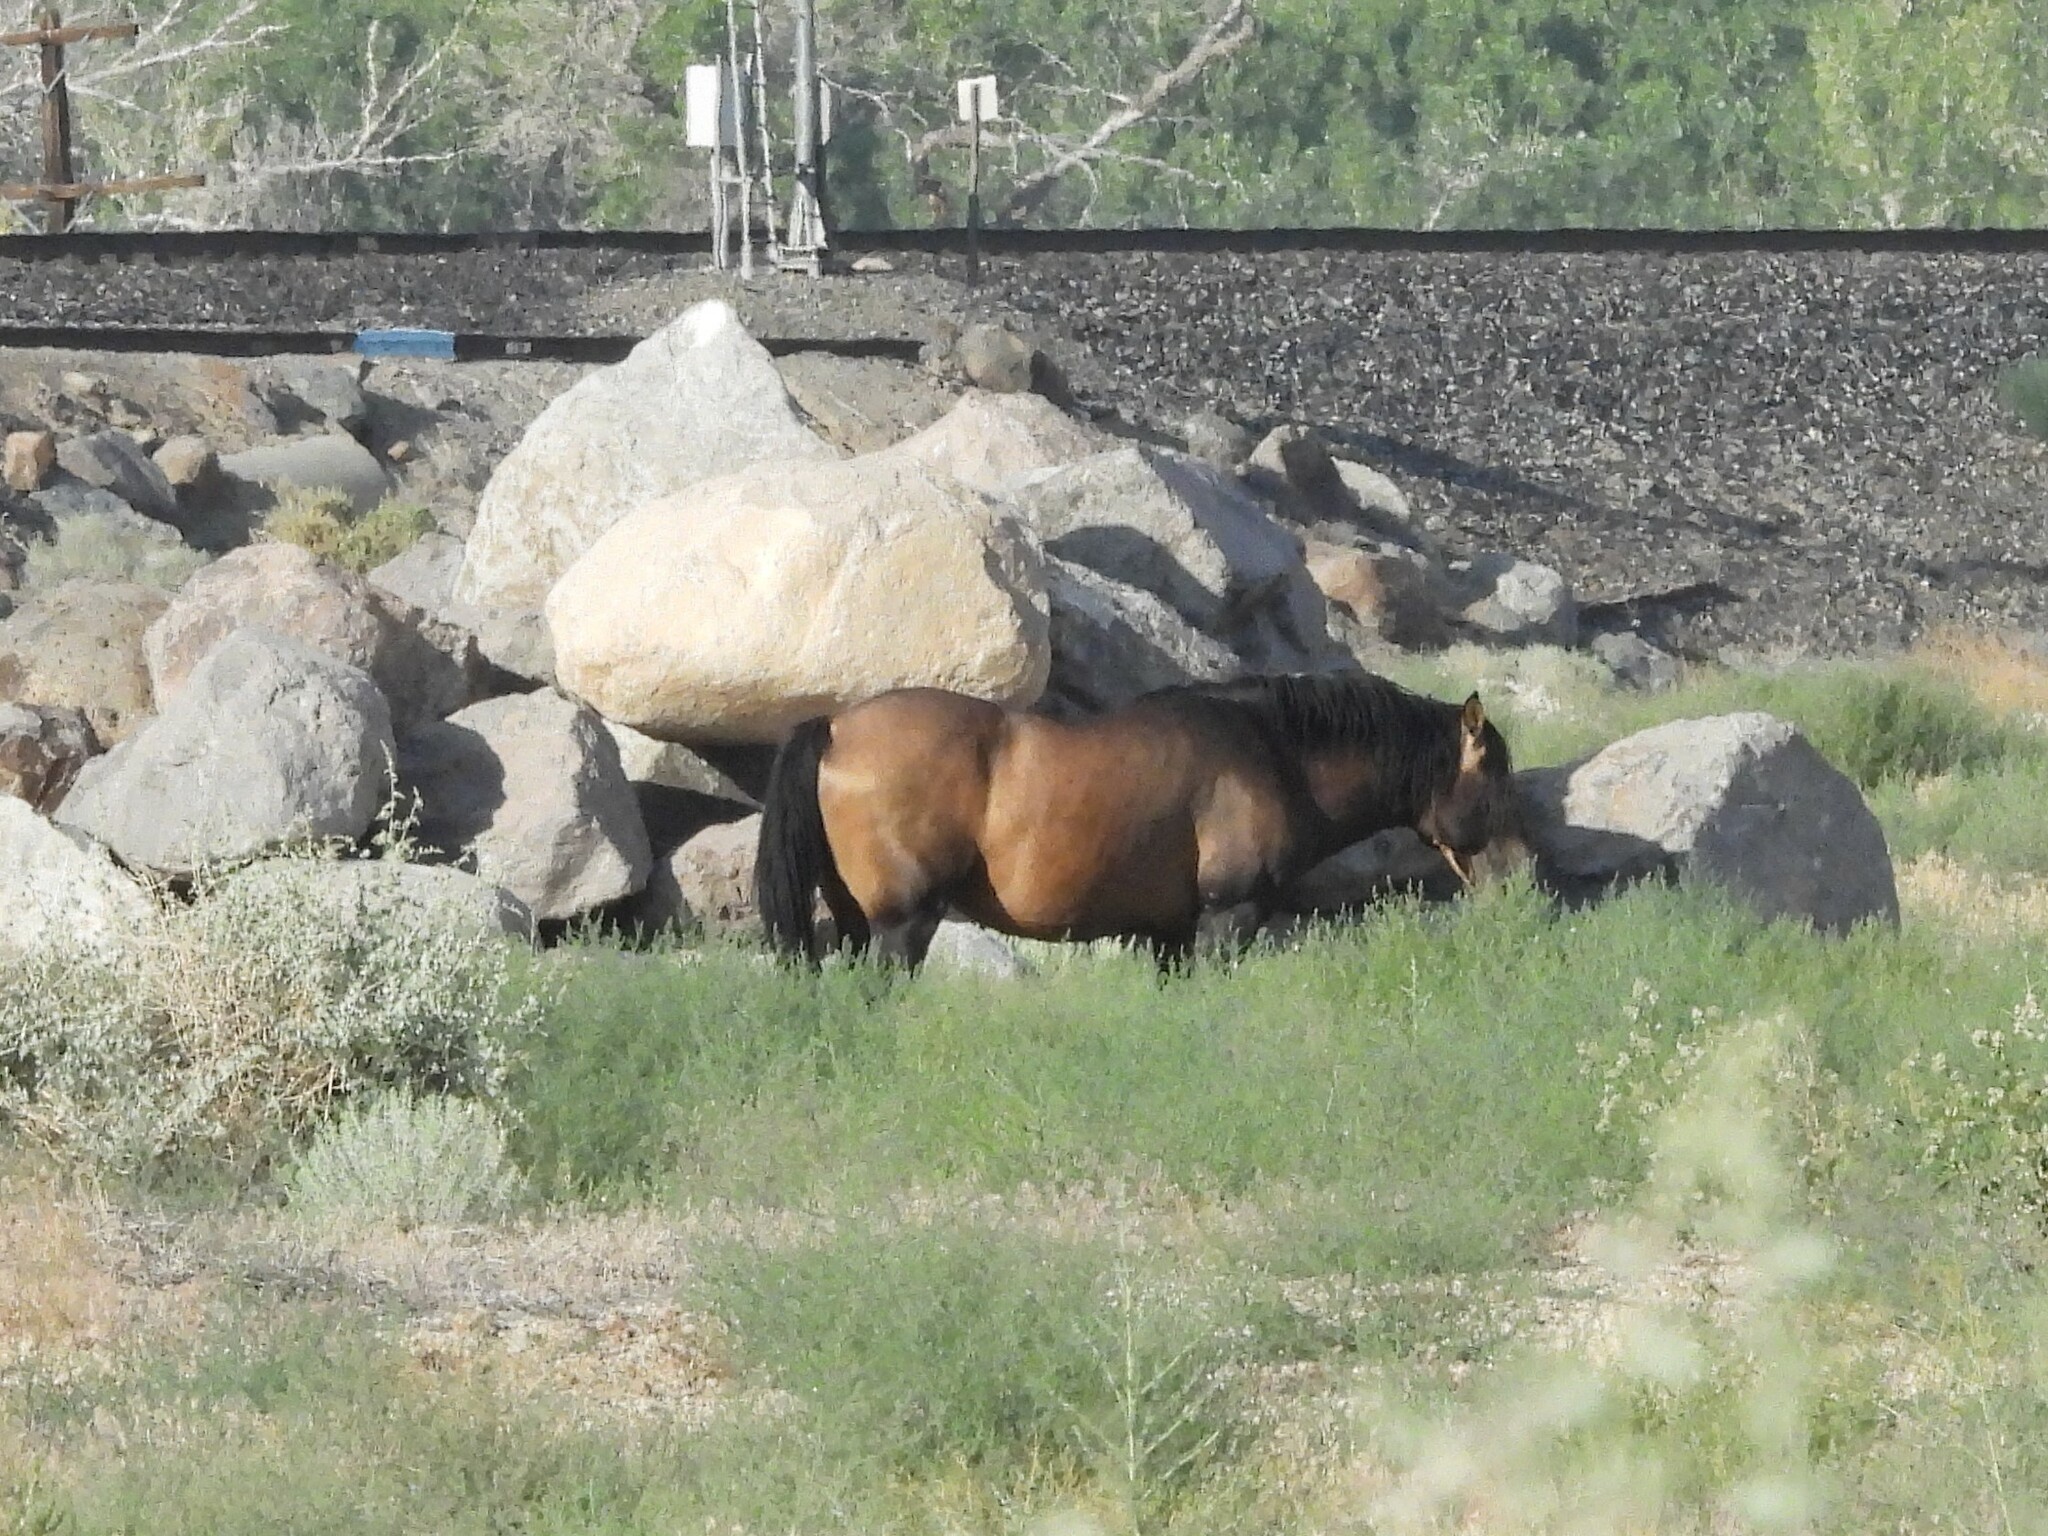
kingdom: Animalia
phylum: Chordata
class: Mammalia
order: Perissodactyla
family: Equidae
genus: Equus
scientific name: Equus caballus
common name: Horse
